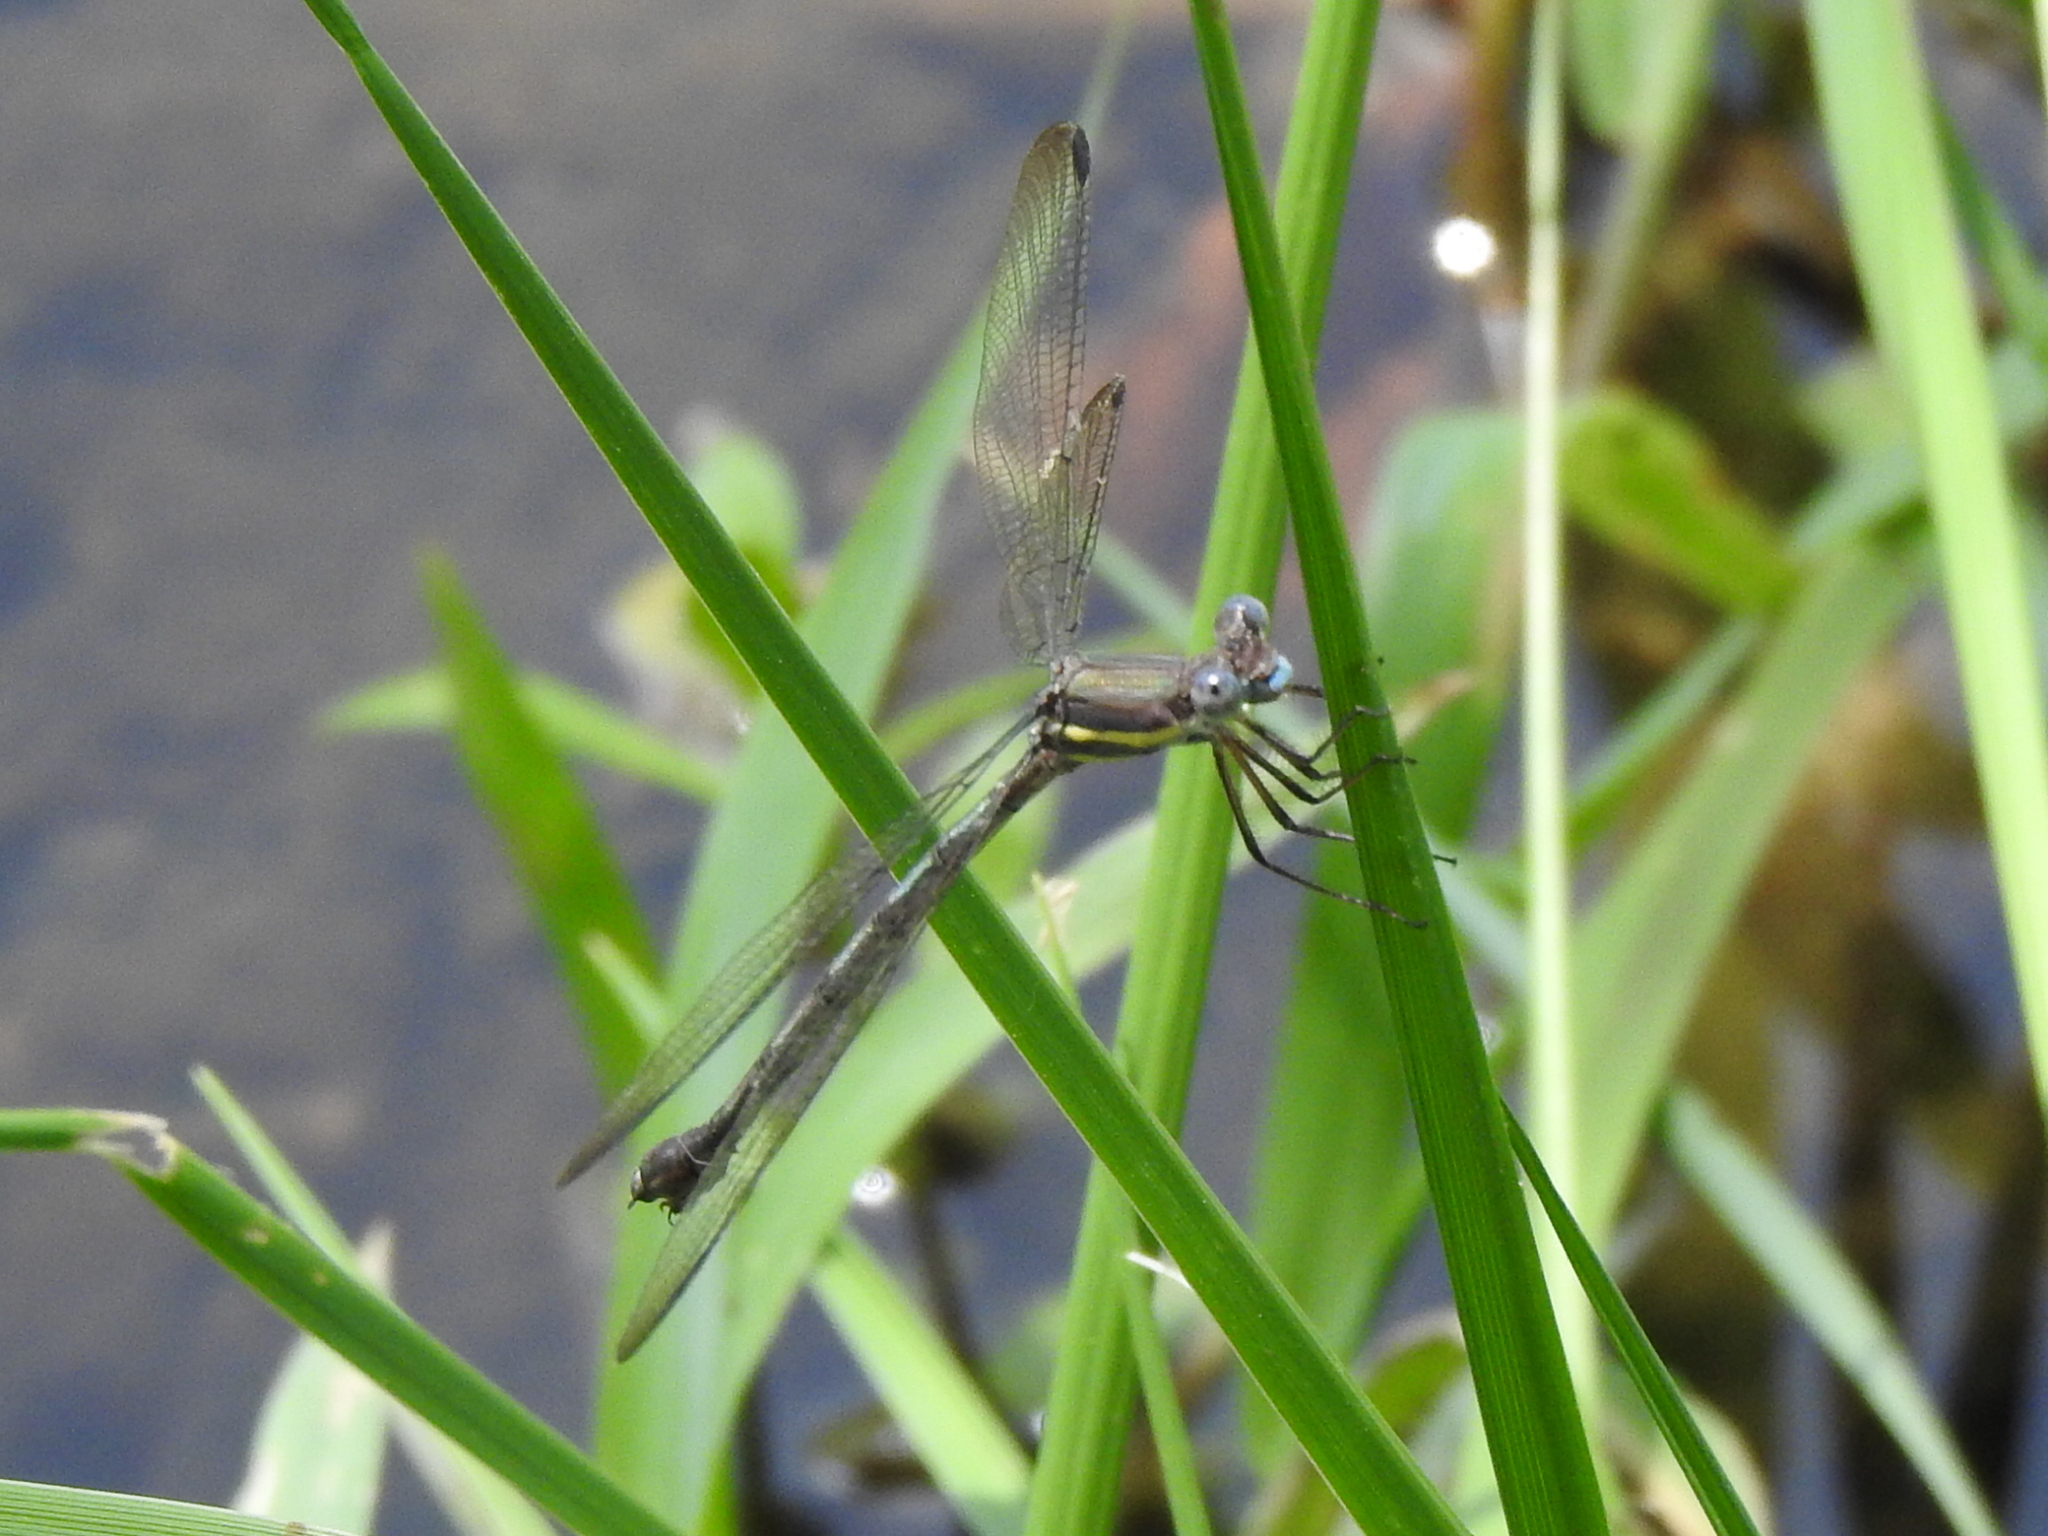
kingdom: Animalia
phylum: Arthropoda
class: Insecta
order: Odonata
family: Lestidae
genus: Archilestes
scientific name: Archilestes grandis
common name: Great spreadwing
